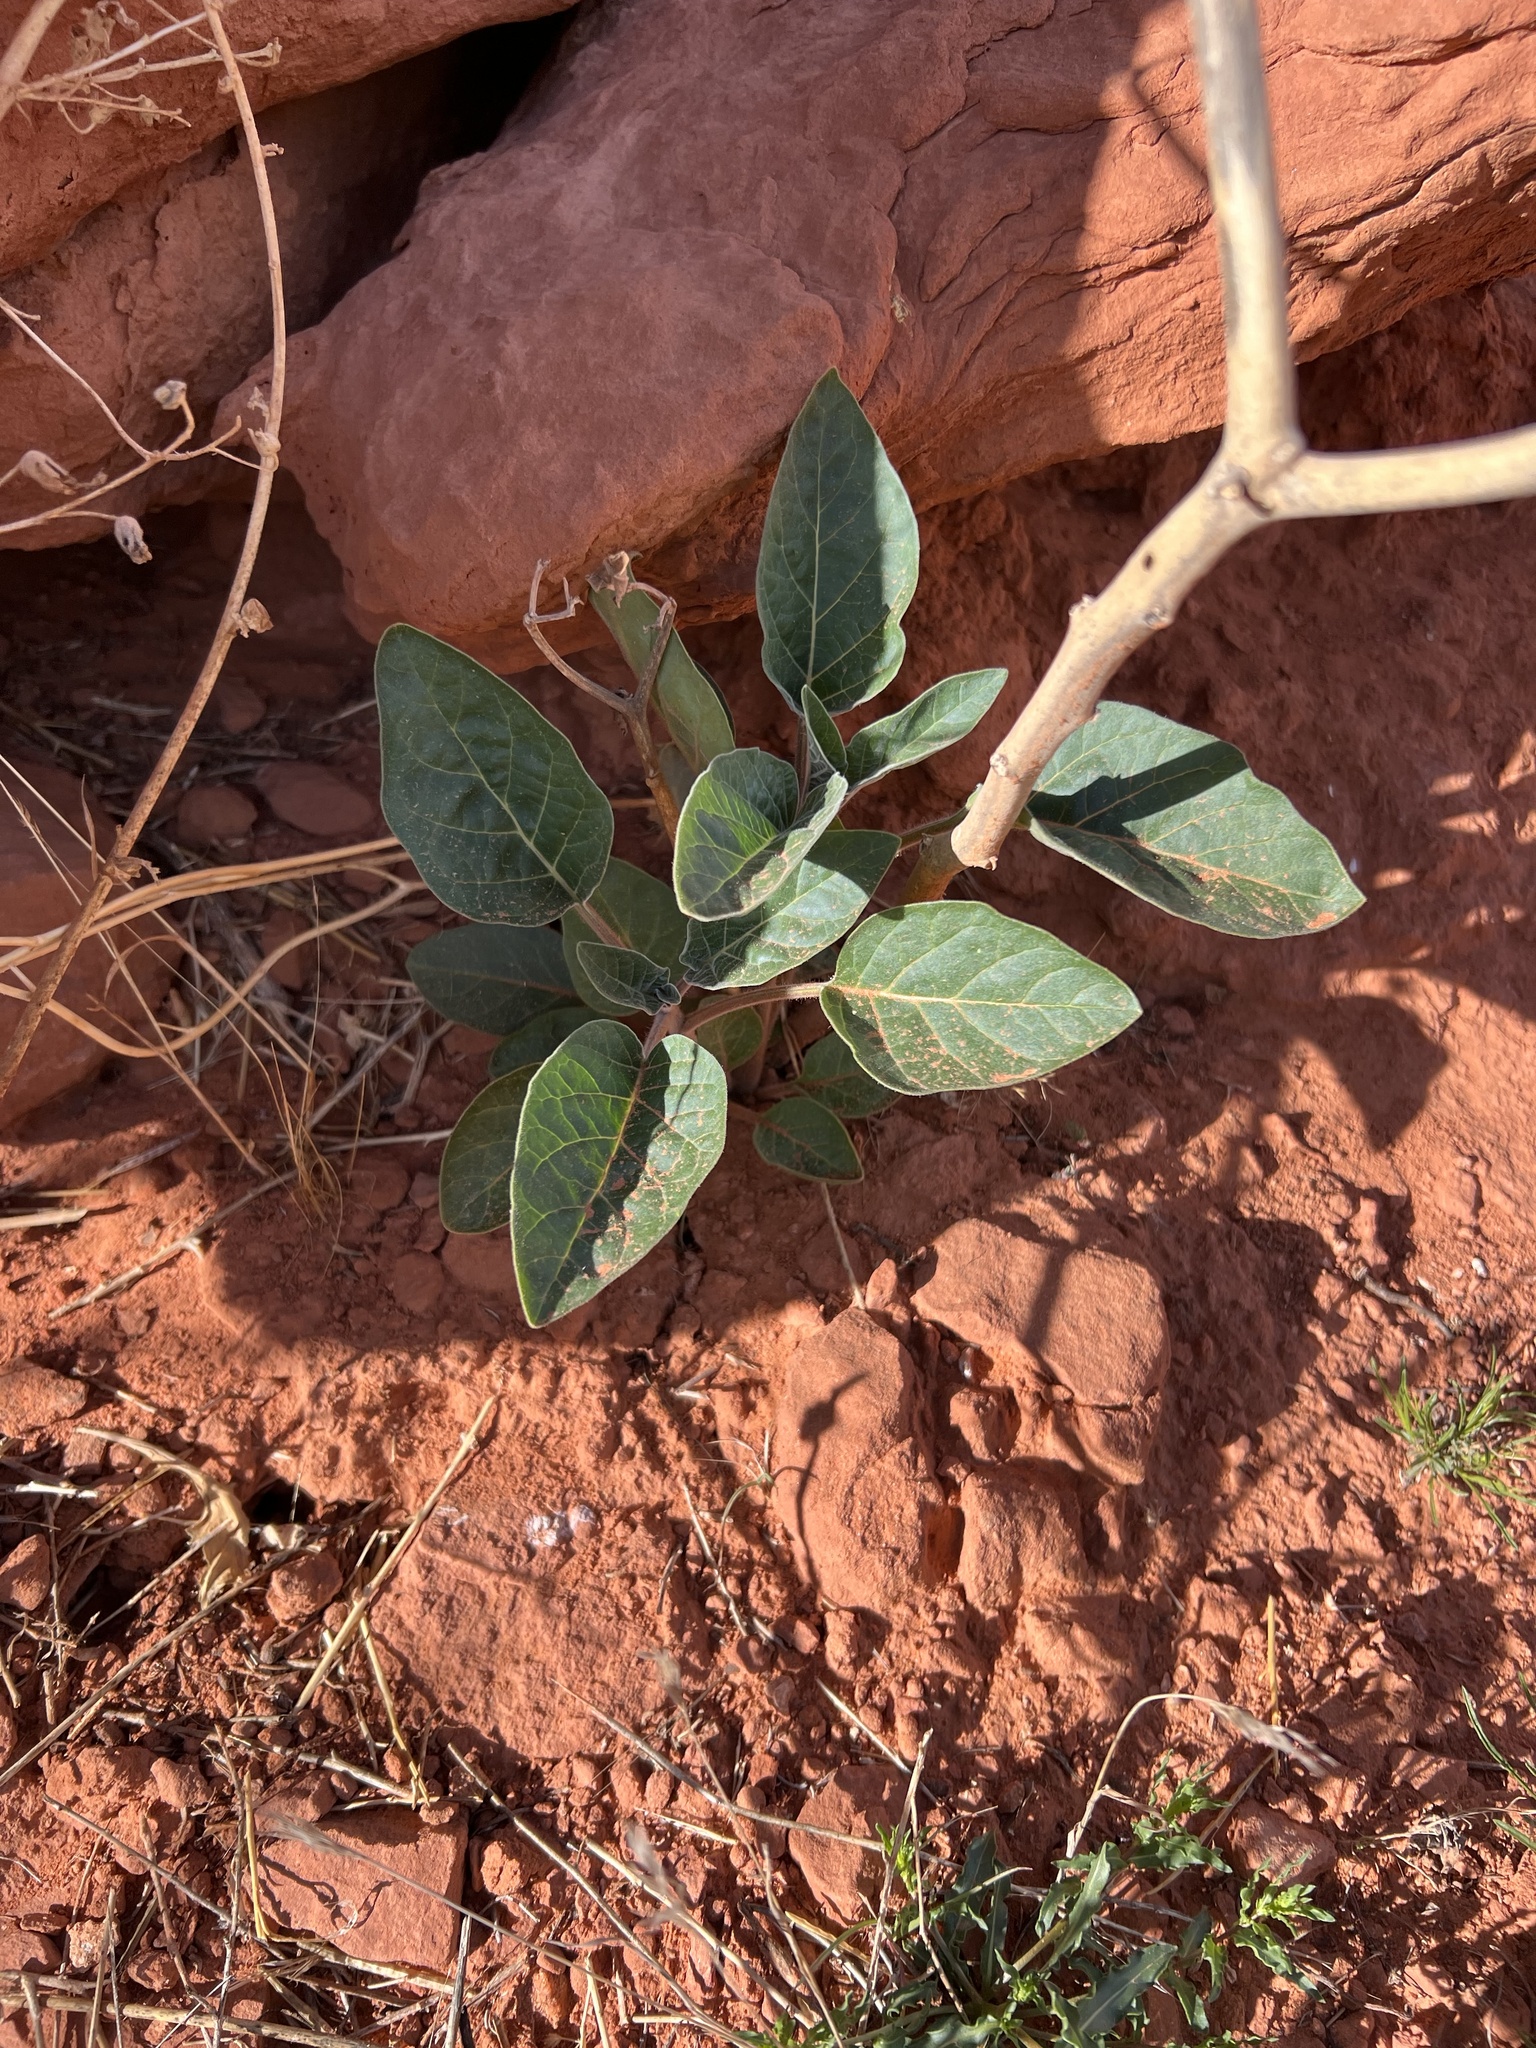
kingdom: Plantae
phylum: Tracheophyta
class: Magnoliopsida
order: Solanales
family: Solanaceae
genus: Datura
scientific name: Datura wrightii
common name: Sacred thorn-apple
